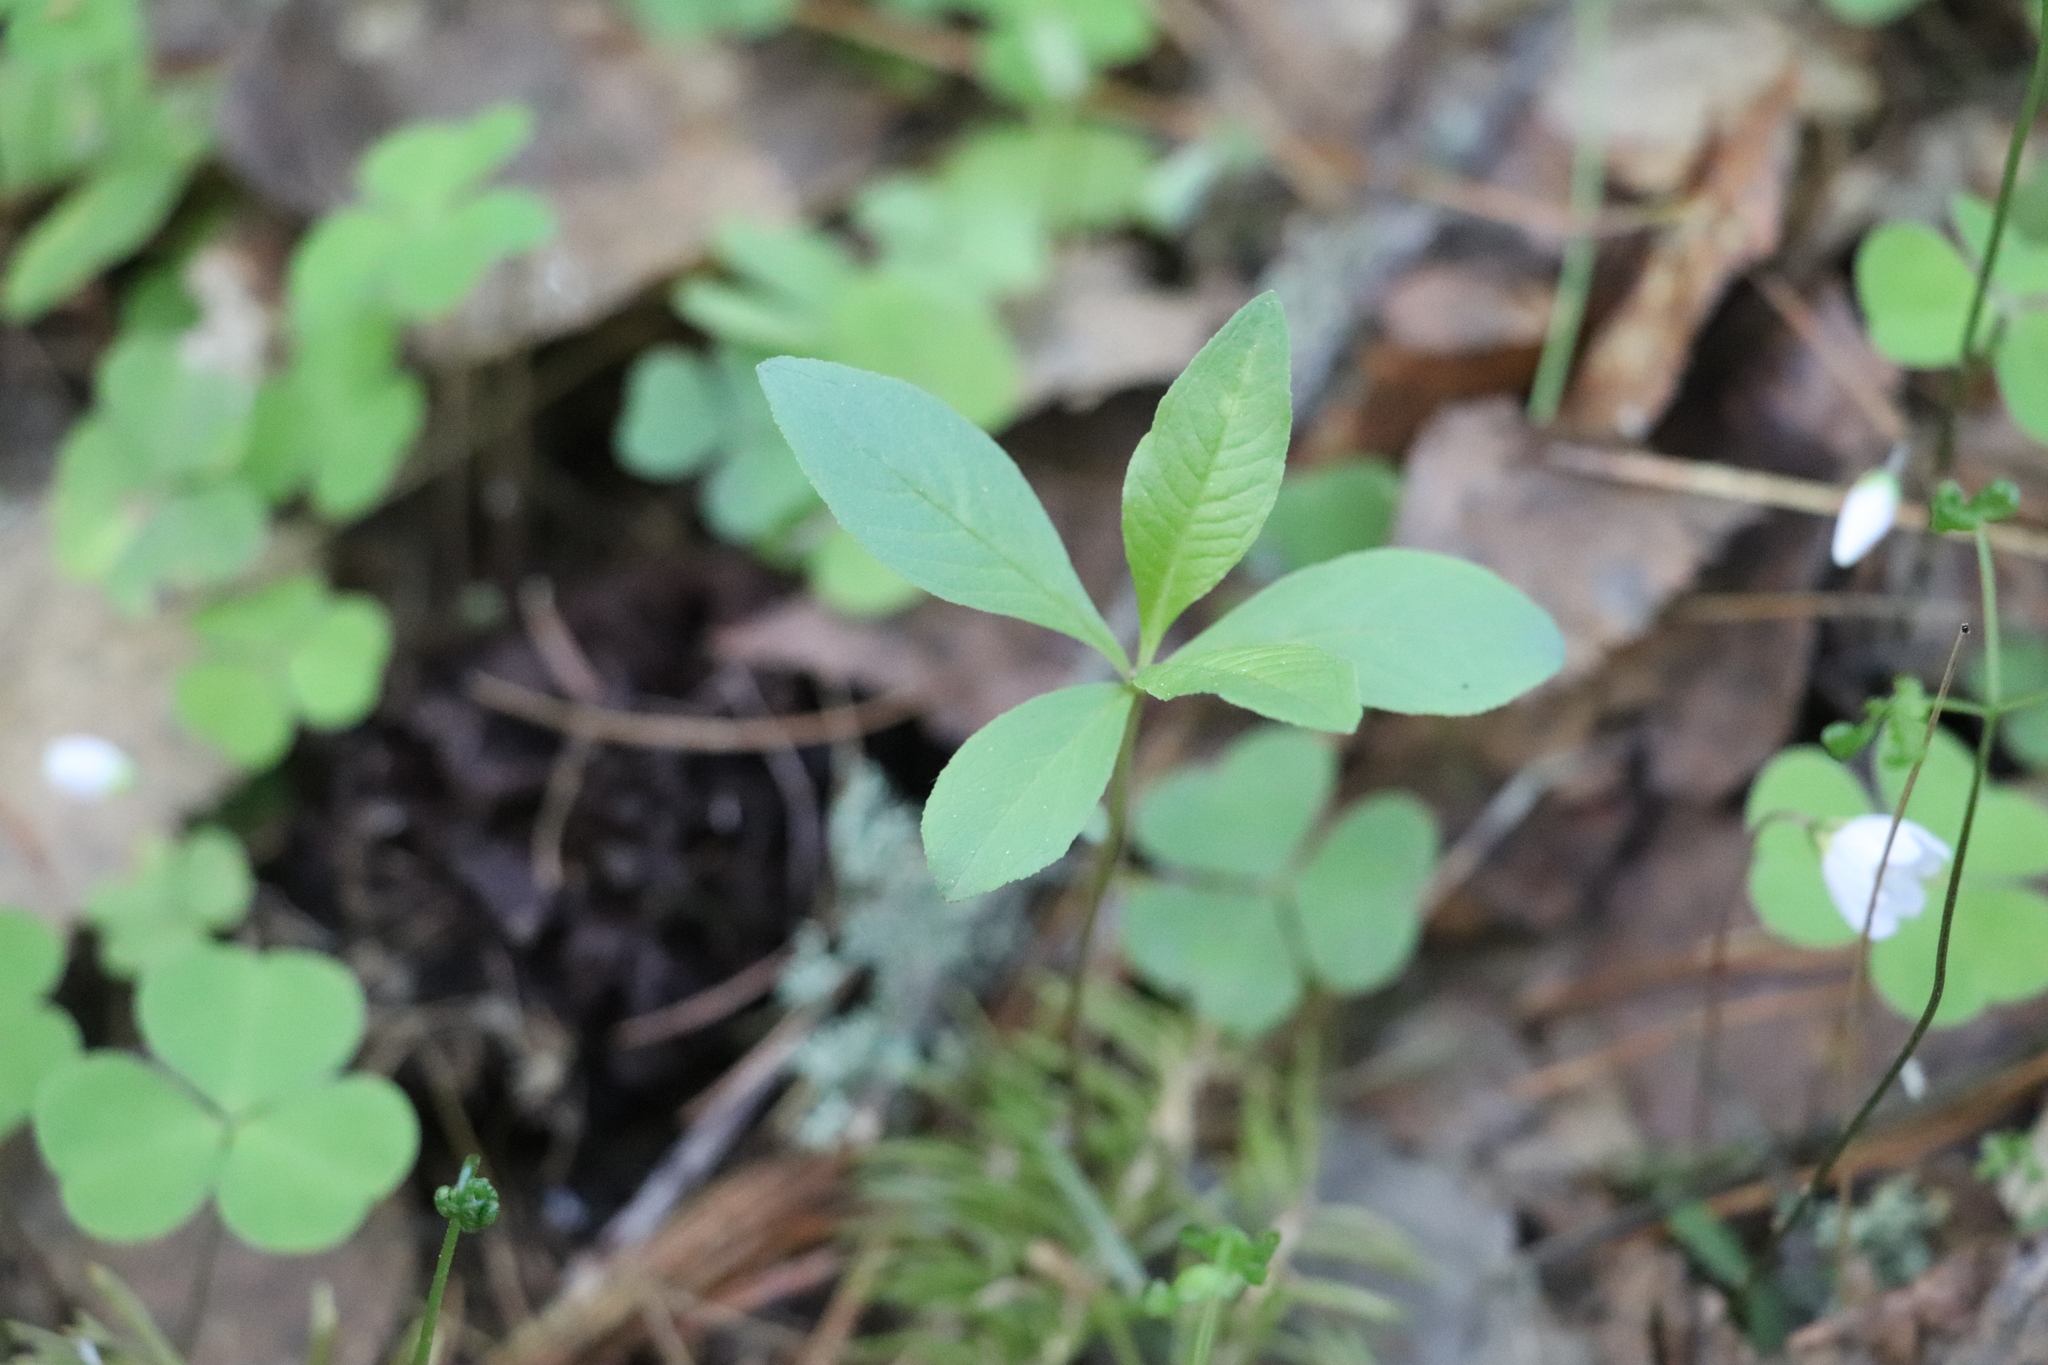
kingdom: Plantae
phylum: Tracheophyta
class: Magnoliopsida
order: Ericales
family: Primulaceae
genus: Lysimachia
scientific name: Lysimachia europaea
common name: Arctic starflower
